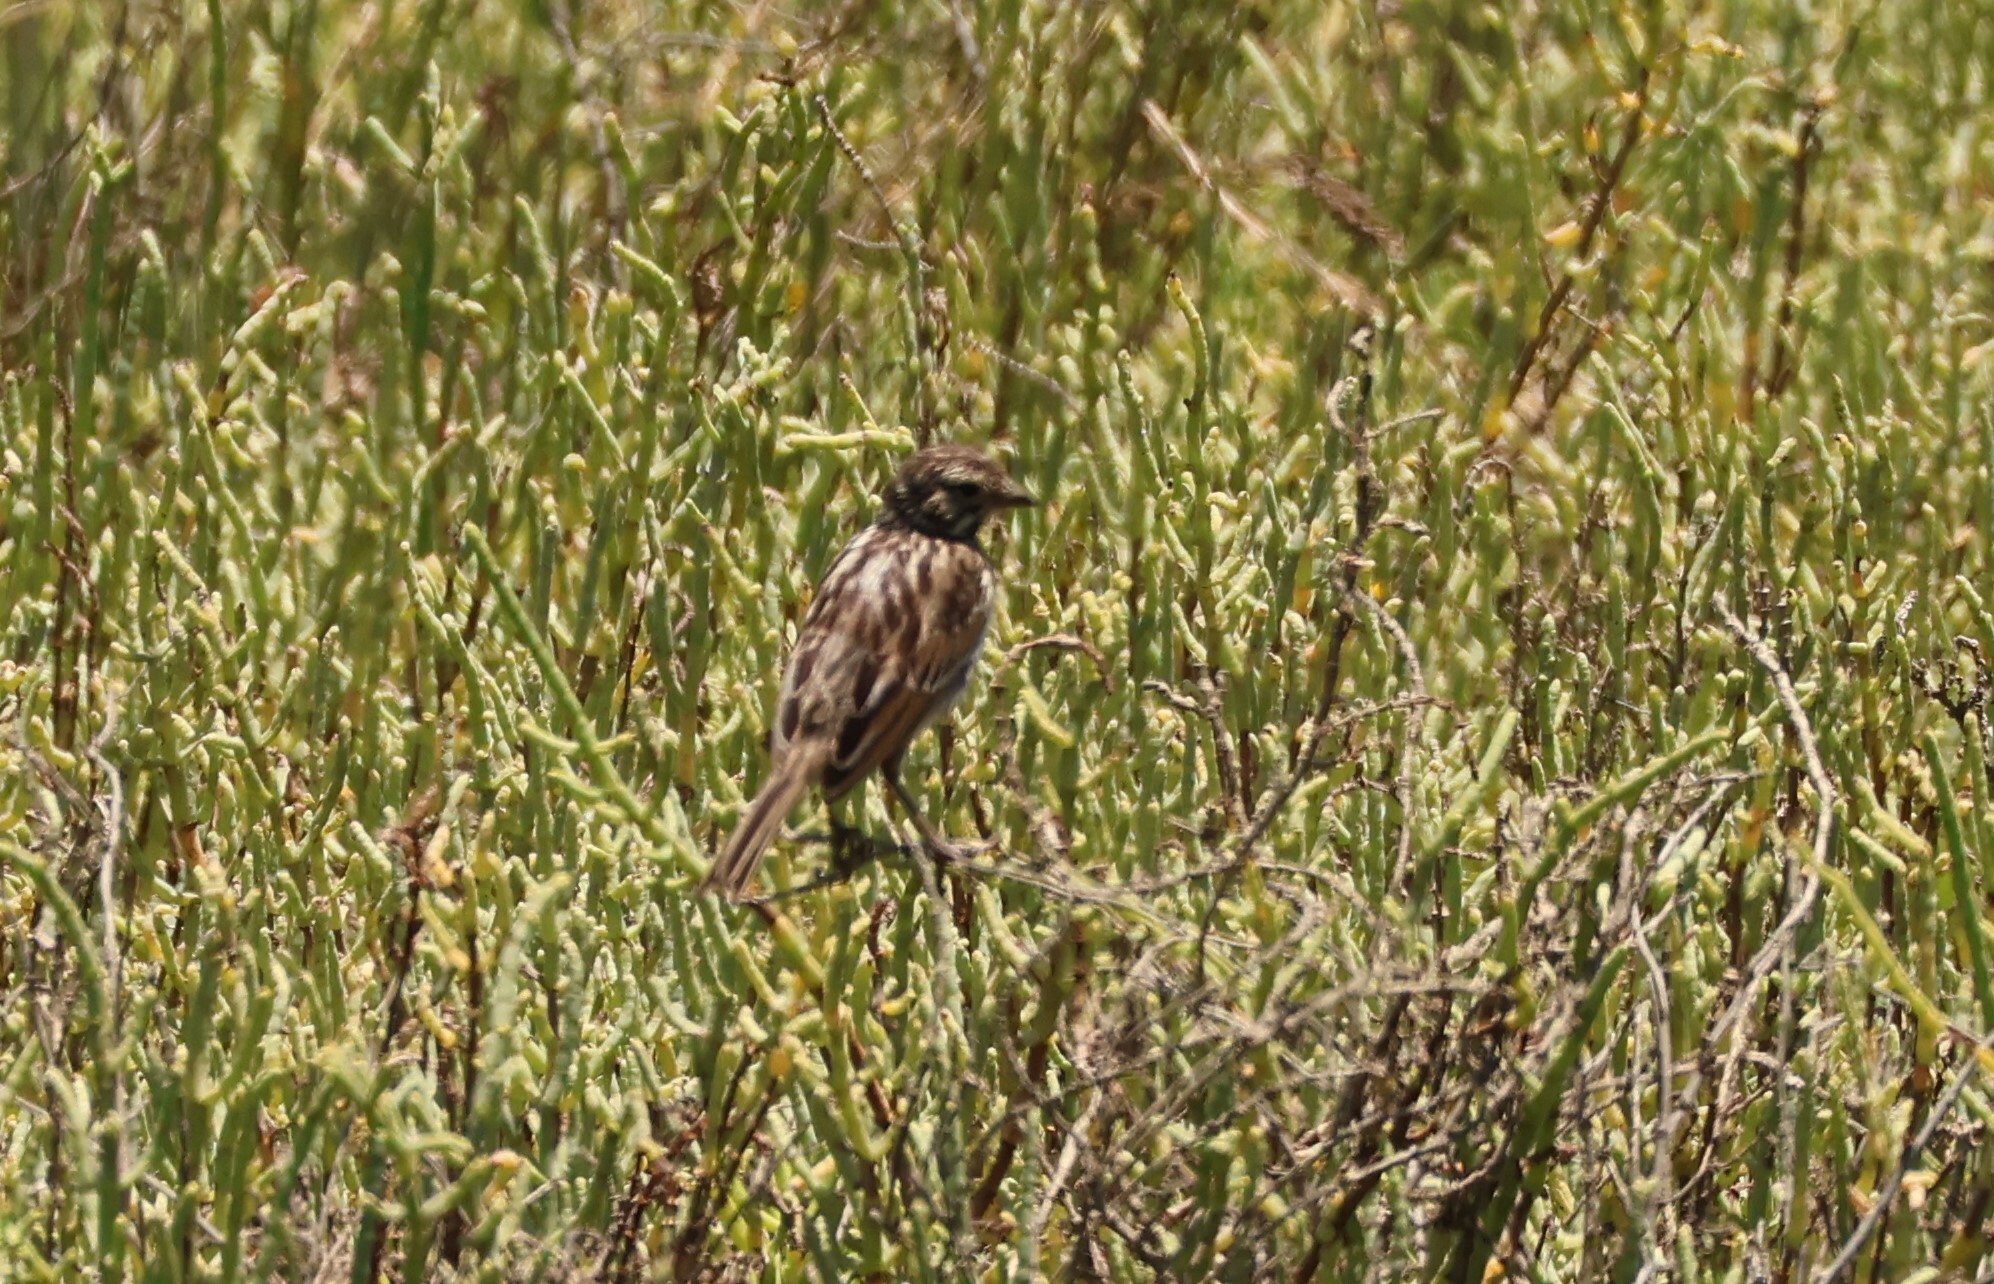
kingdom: Animalia
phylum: Chordata
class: Aves
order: Passeriformes
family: Passerellidae
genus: Passerculus
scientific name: Passerculus sandwichensis
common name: Savannah sparrow
